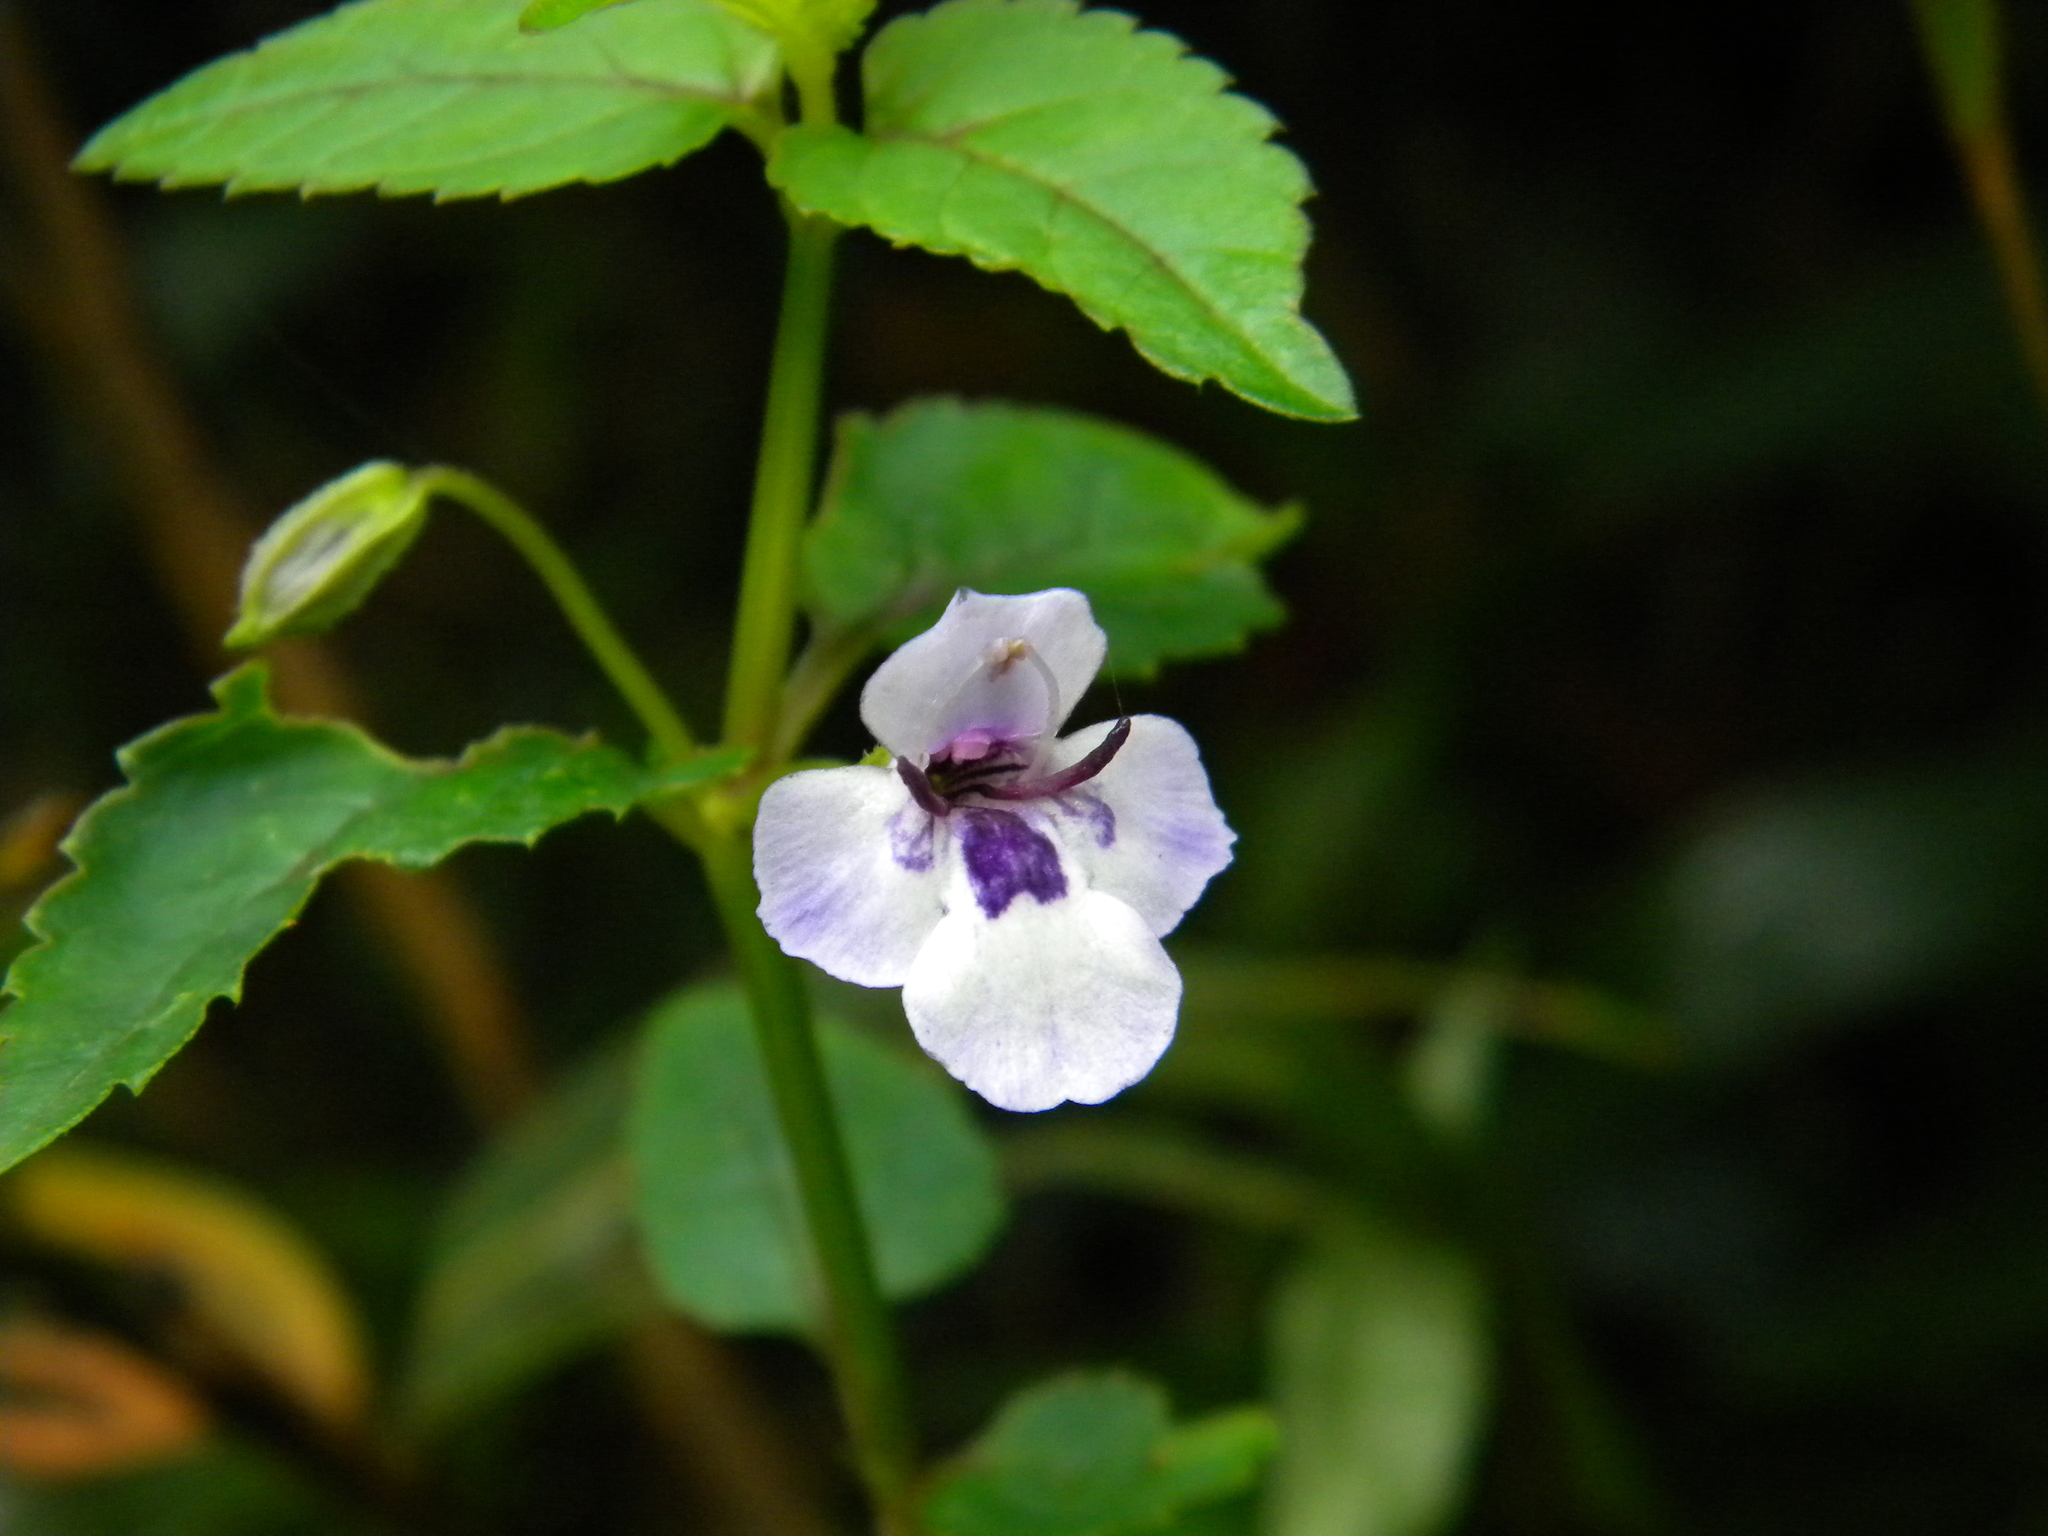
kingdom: Plantae
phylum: Tracheophyta
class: Magnoliopsida
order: Lamiales
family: Linderniaceae
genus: Torenia
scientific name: Torenia courtallensis
